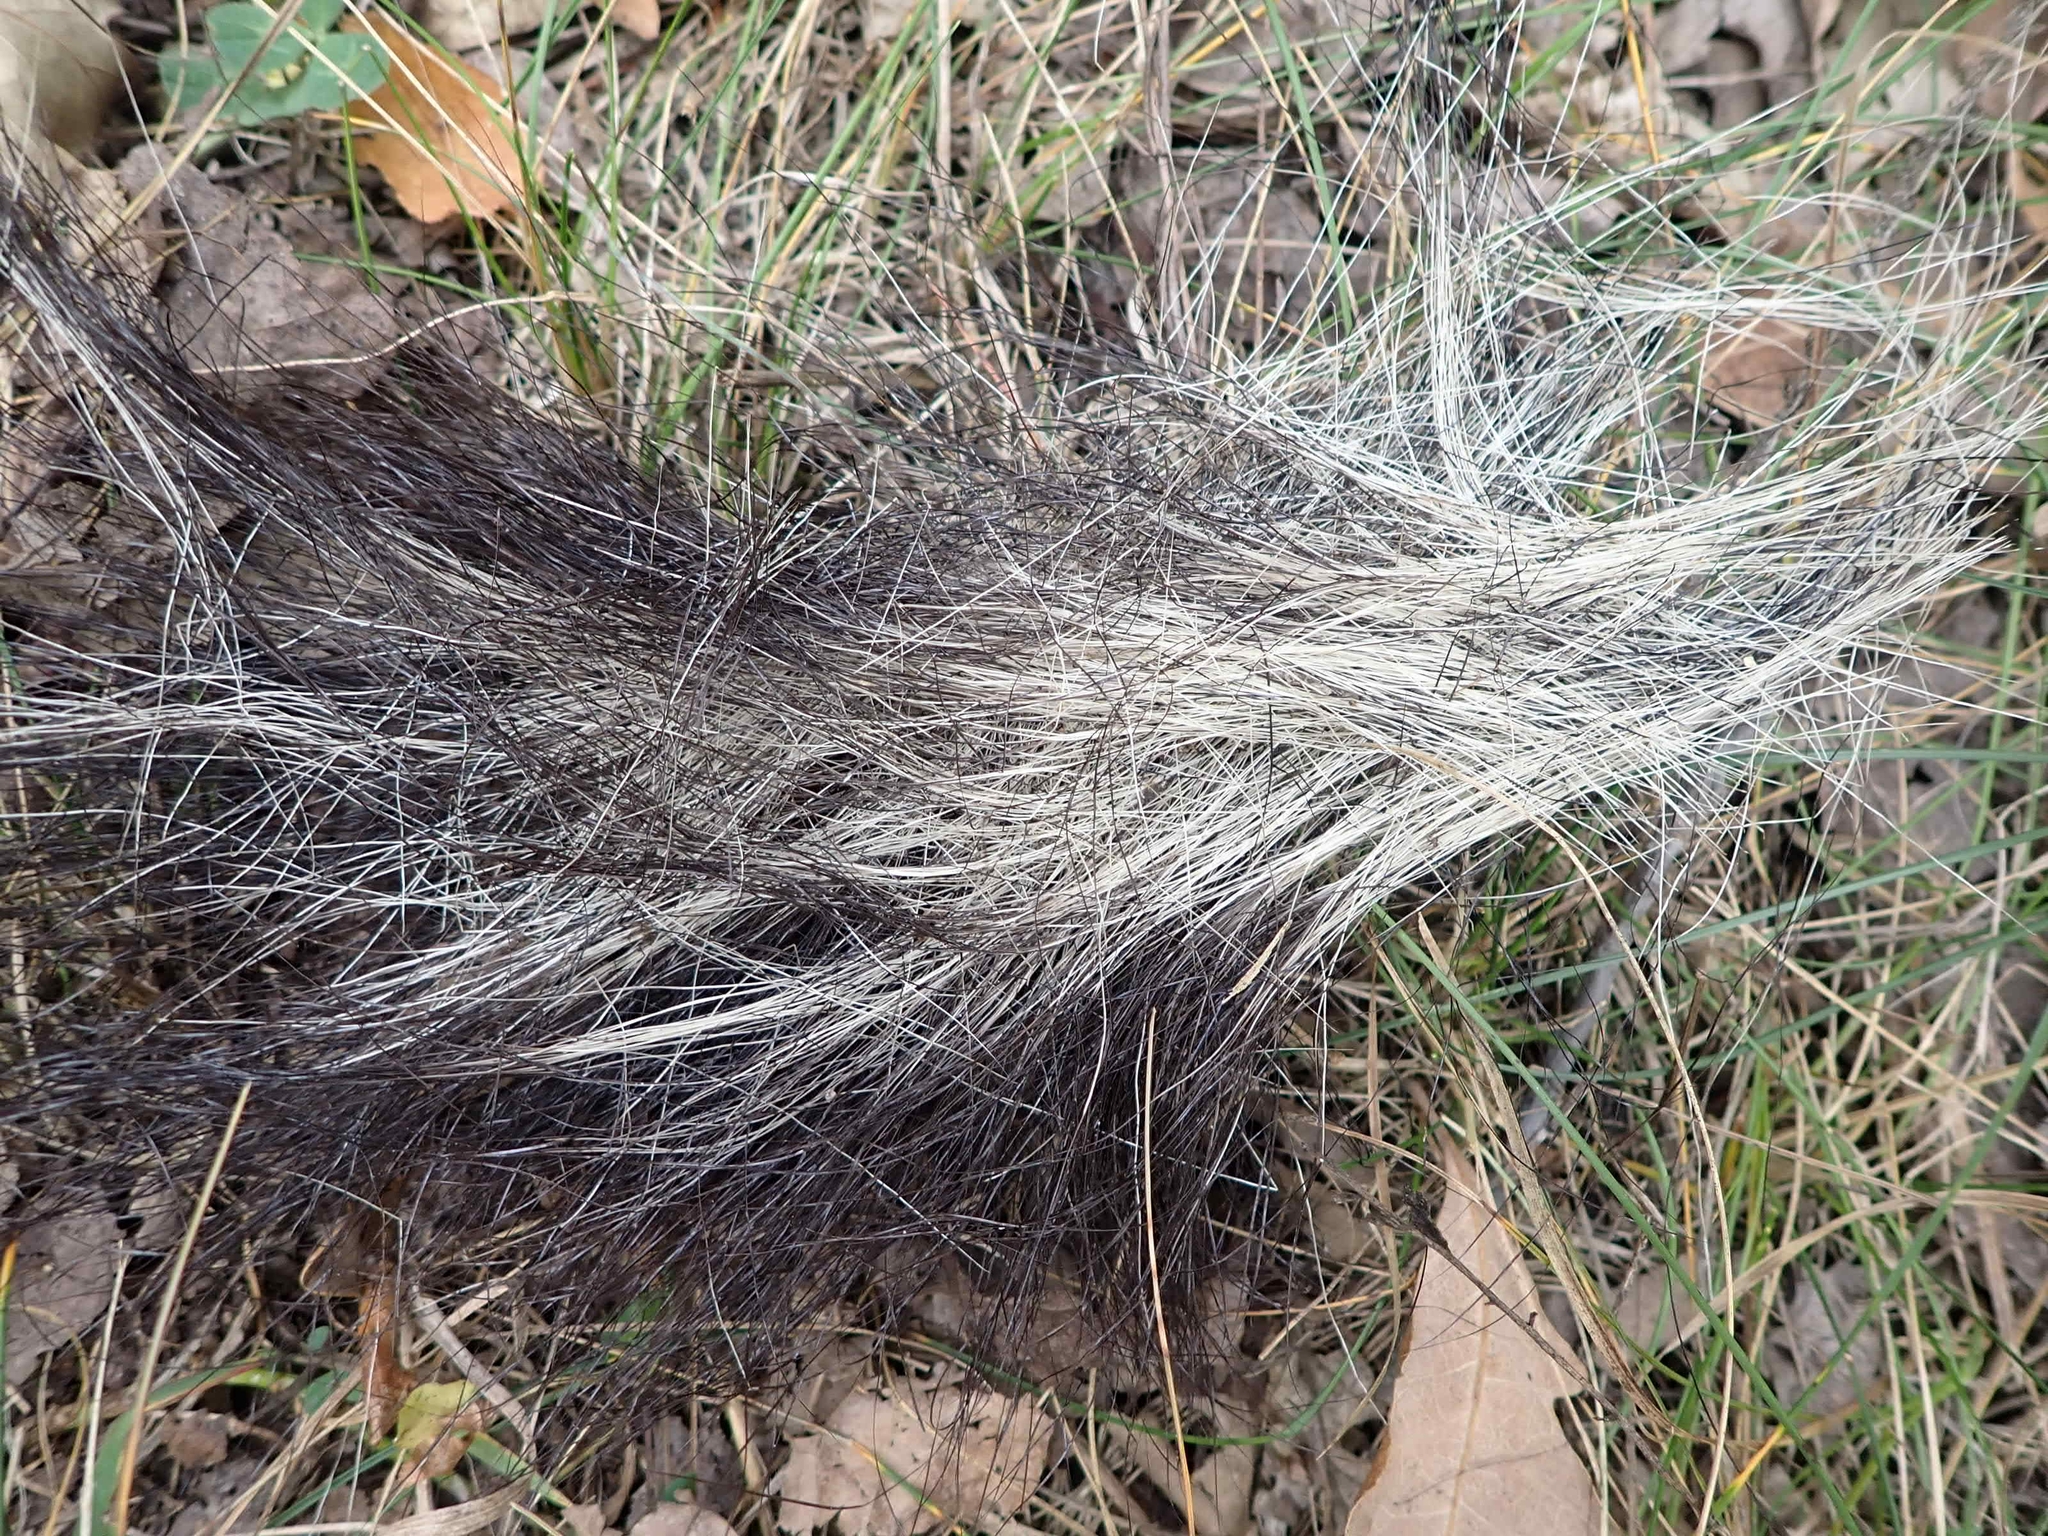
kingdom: Animalia
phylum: Chordata
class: Mammalia
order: Carnivora
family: Mephitidae
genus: Mephitis
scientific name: Mephitis mephitis
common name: Striped skunk
